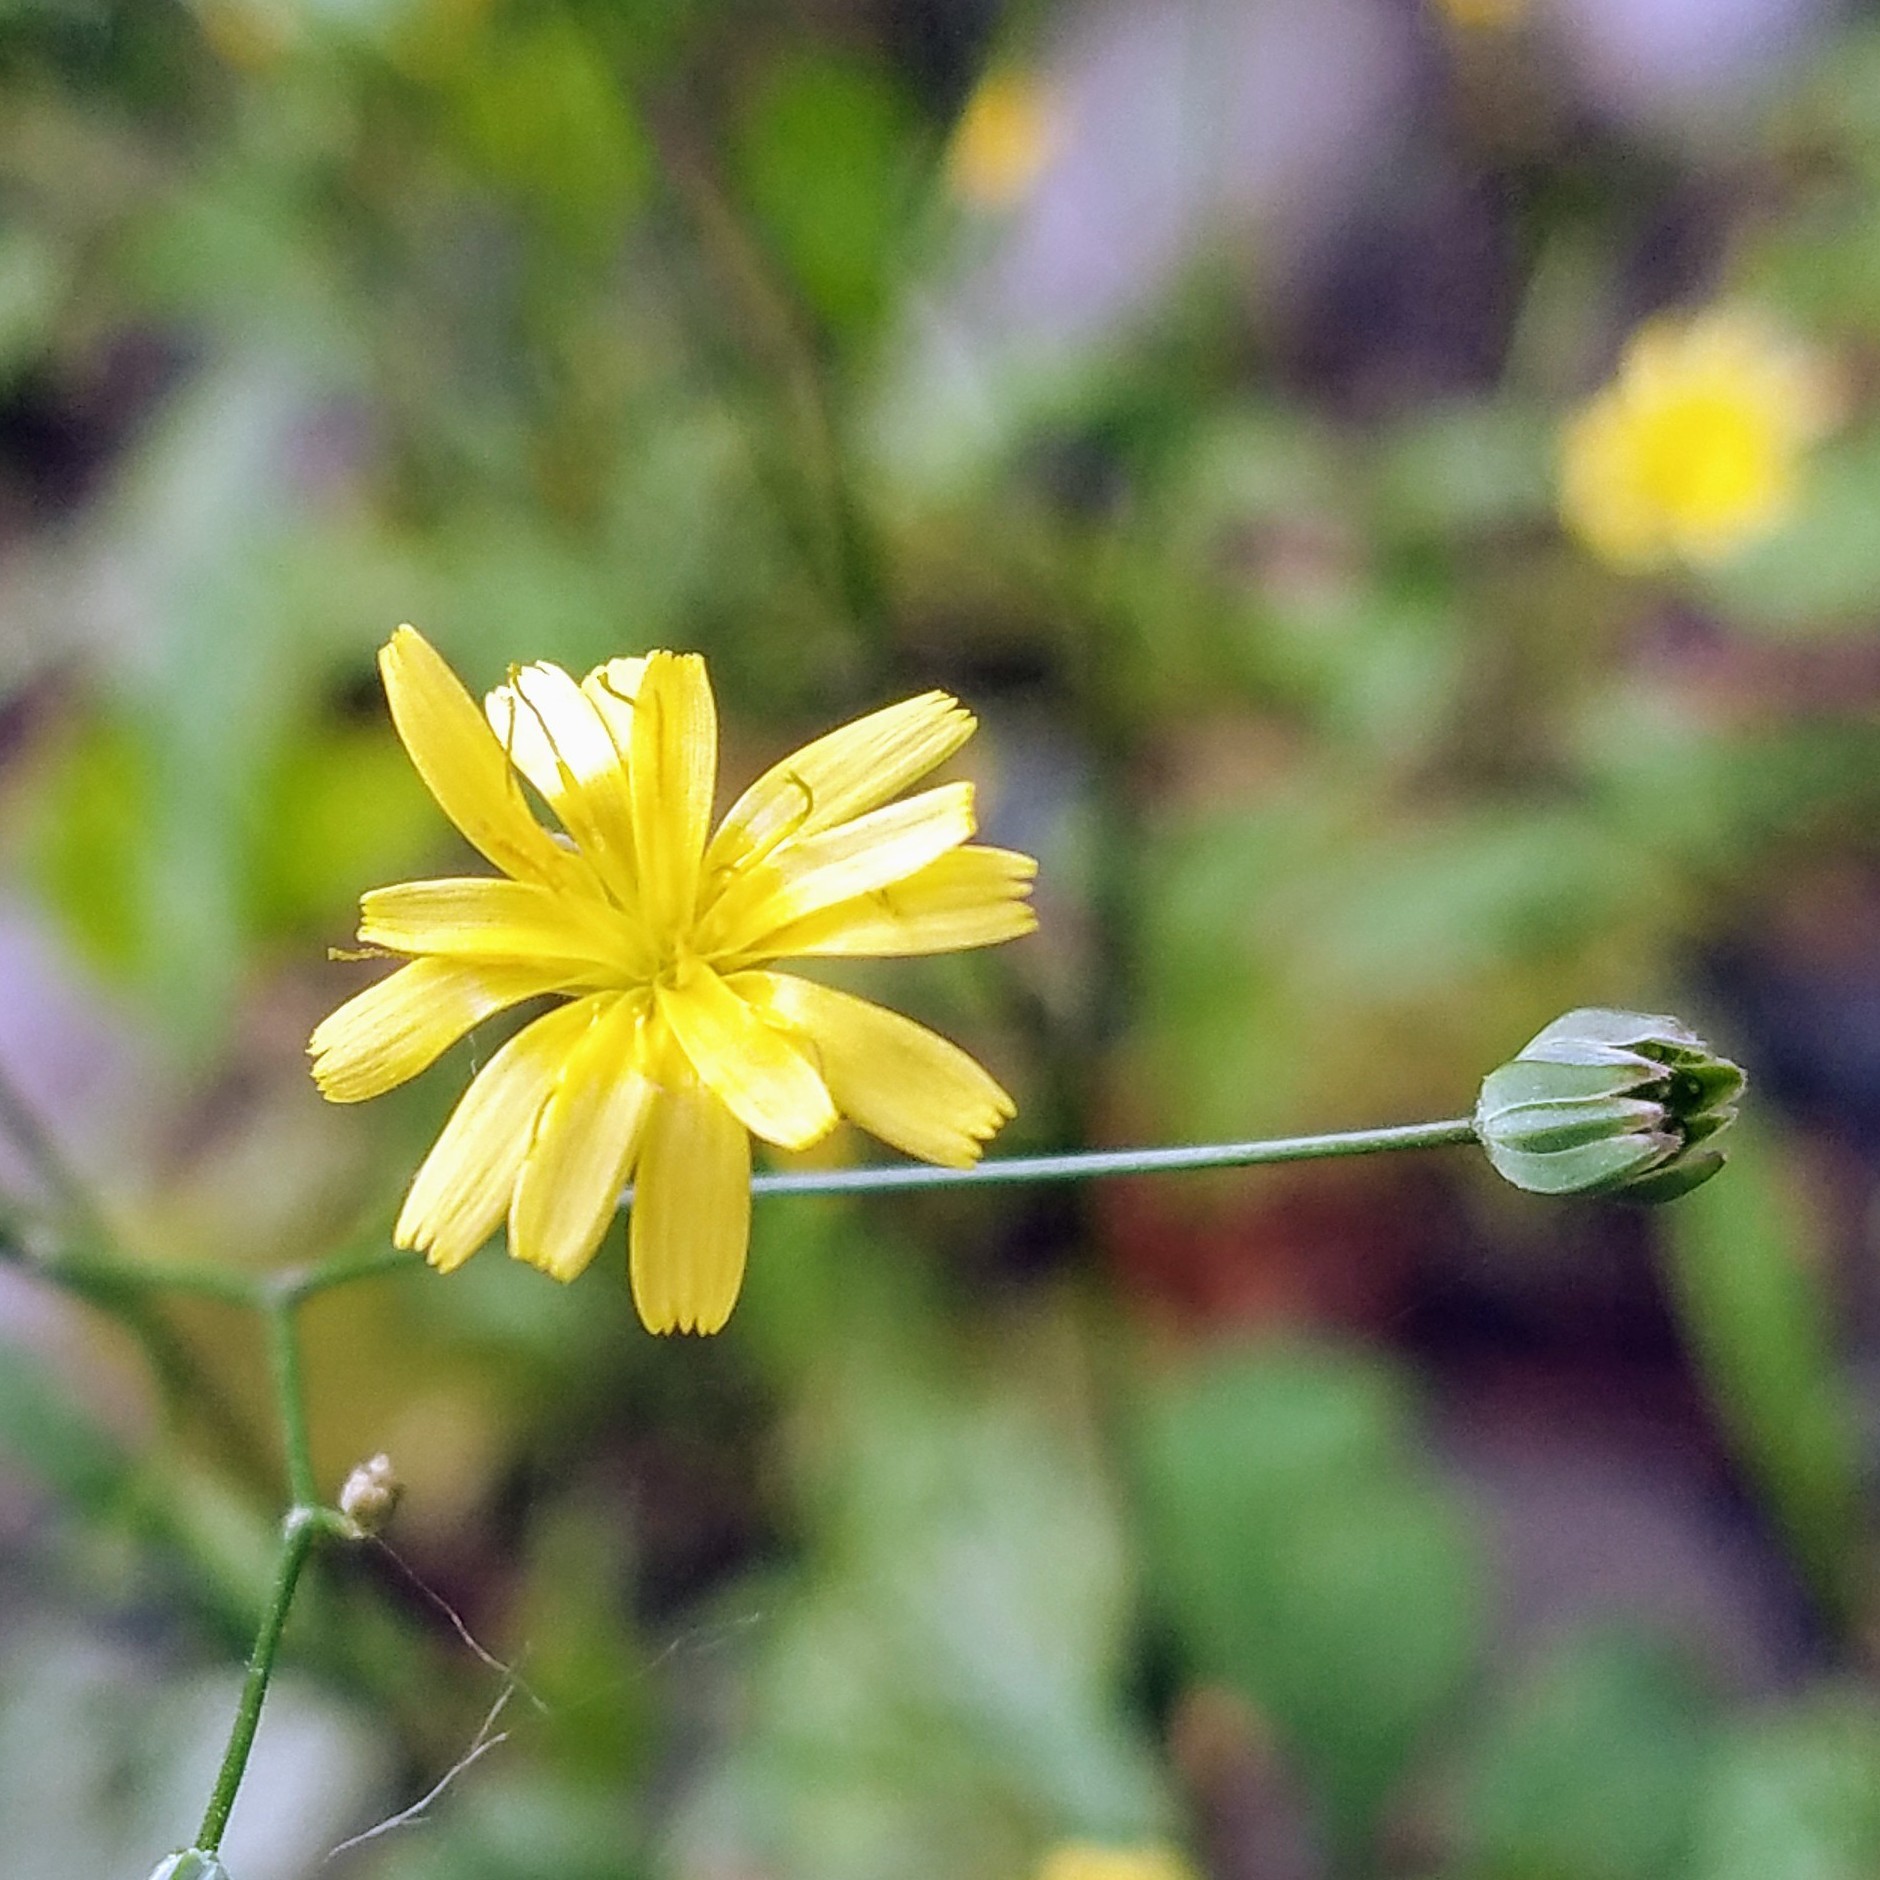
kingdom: Plantae
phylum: Tracheophyta
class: Magnoliopsida
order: Asterales
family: Asteraceae
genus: Lapsana
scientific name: Lapsana communis
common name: Nipplewort
